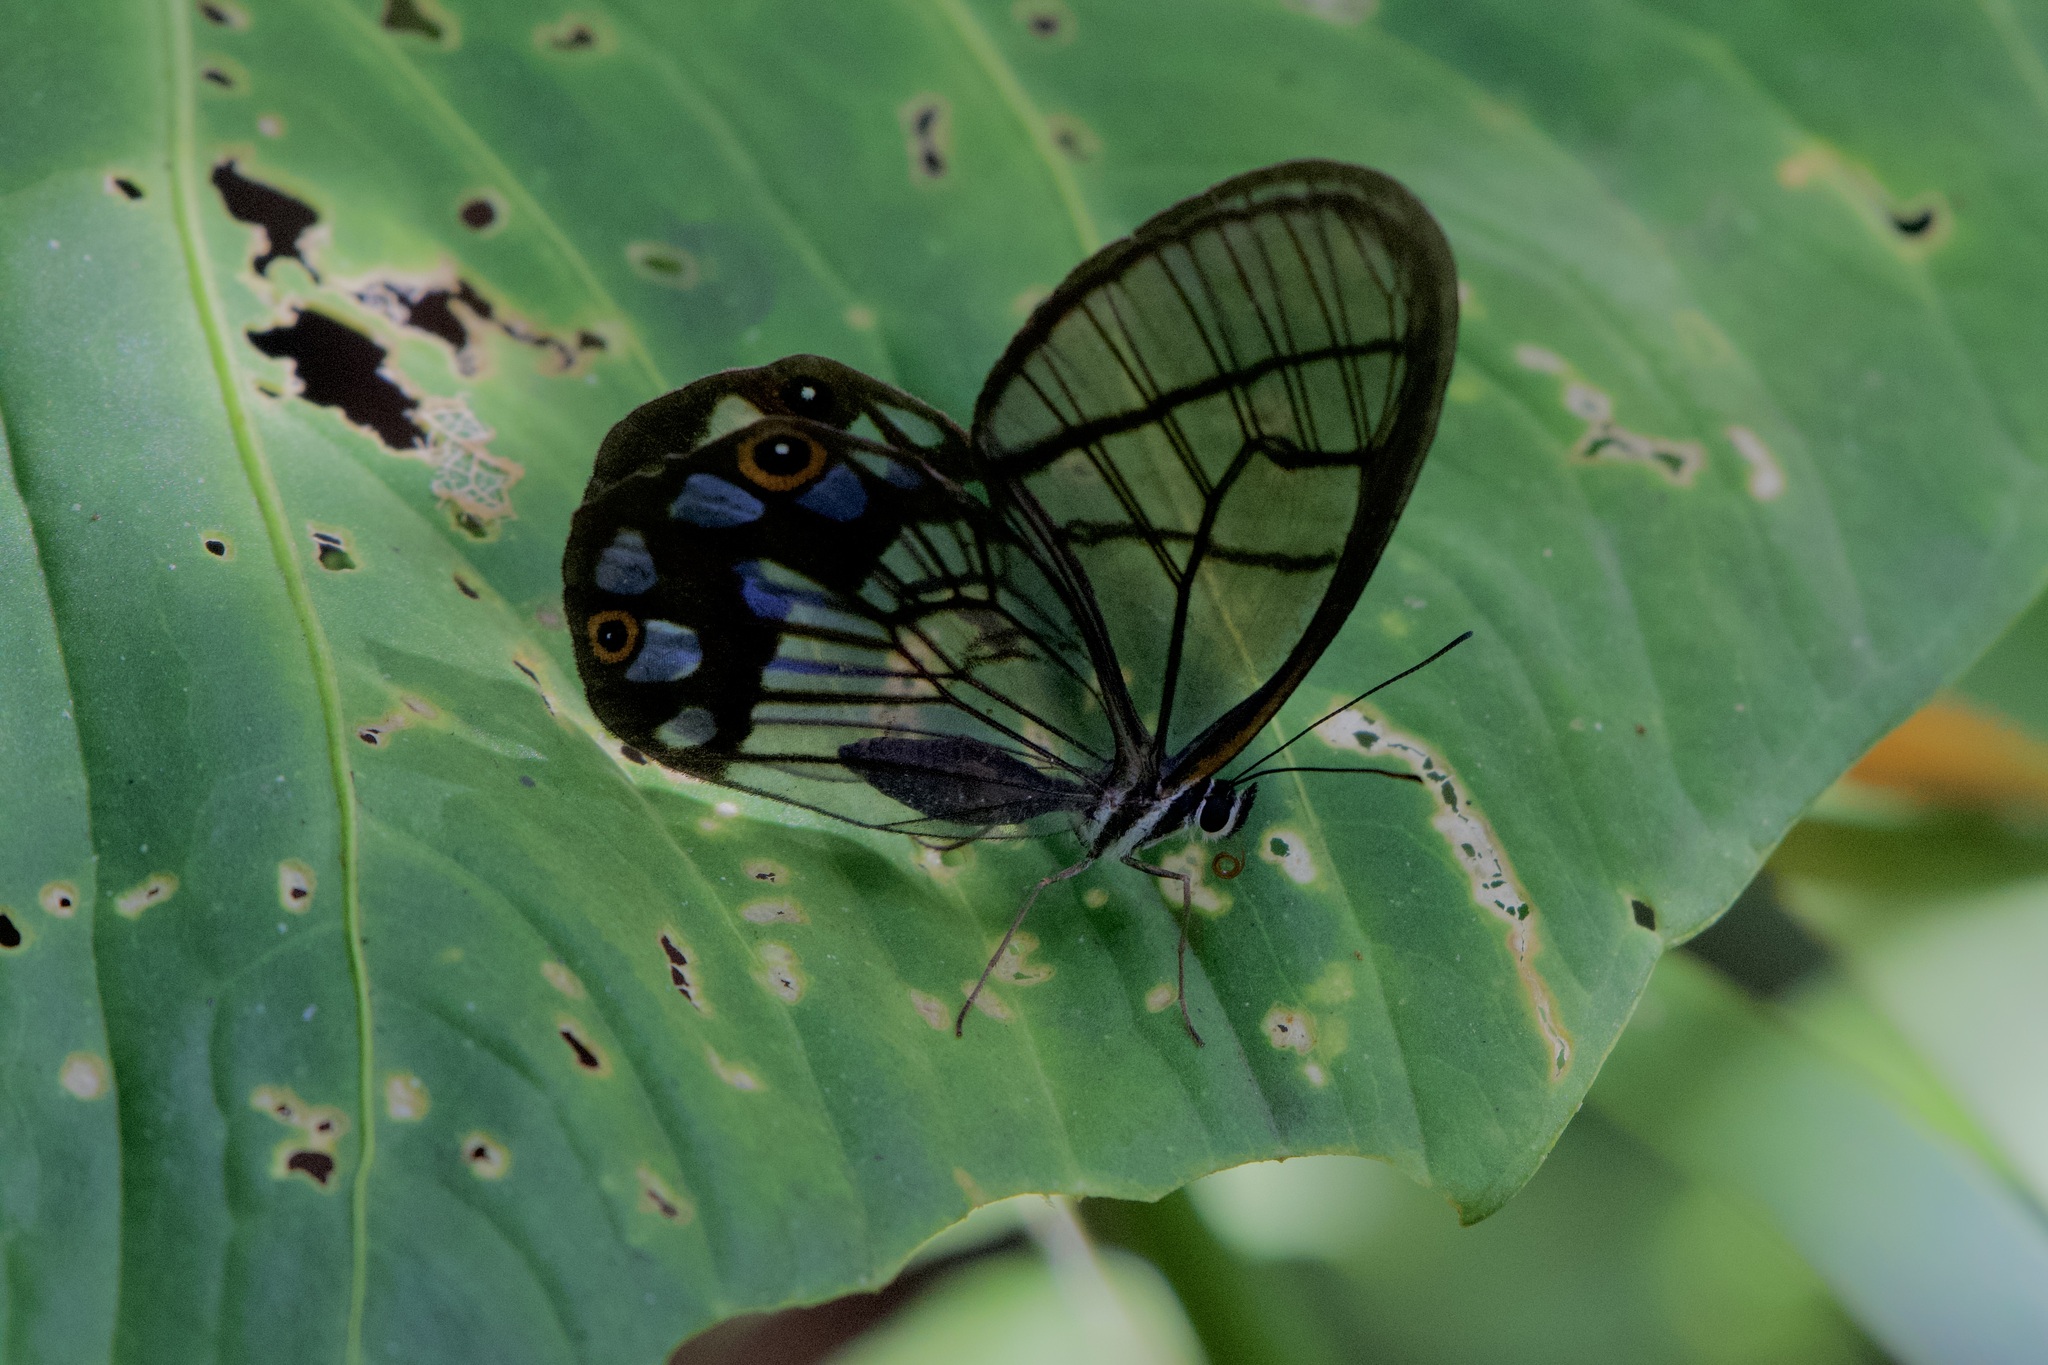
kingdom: Animalia
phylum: Arthropoda
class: Insecta
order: Lepidoptera
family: Nymphalidae
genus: Pseudohaetera
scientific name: Pseudohaetera
